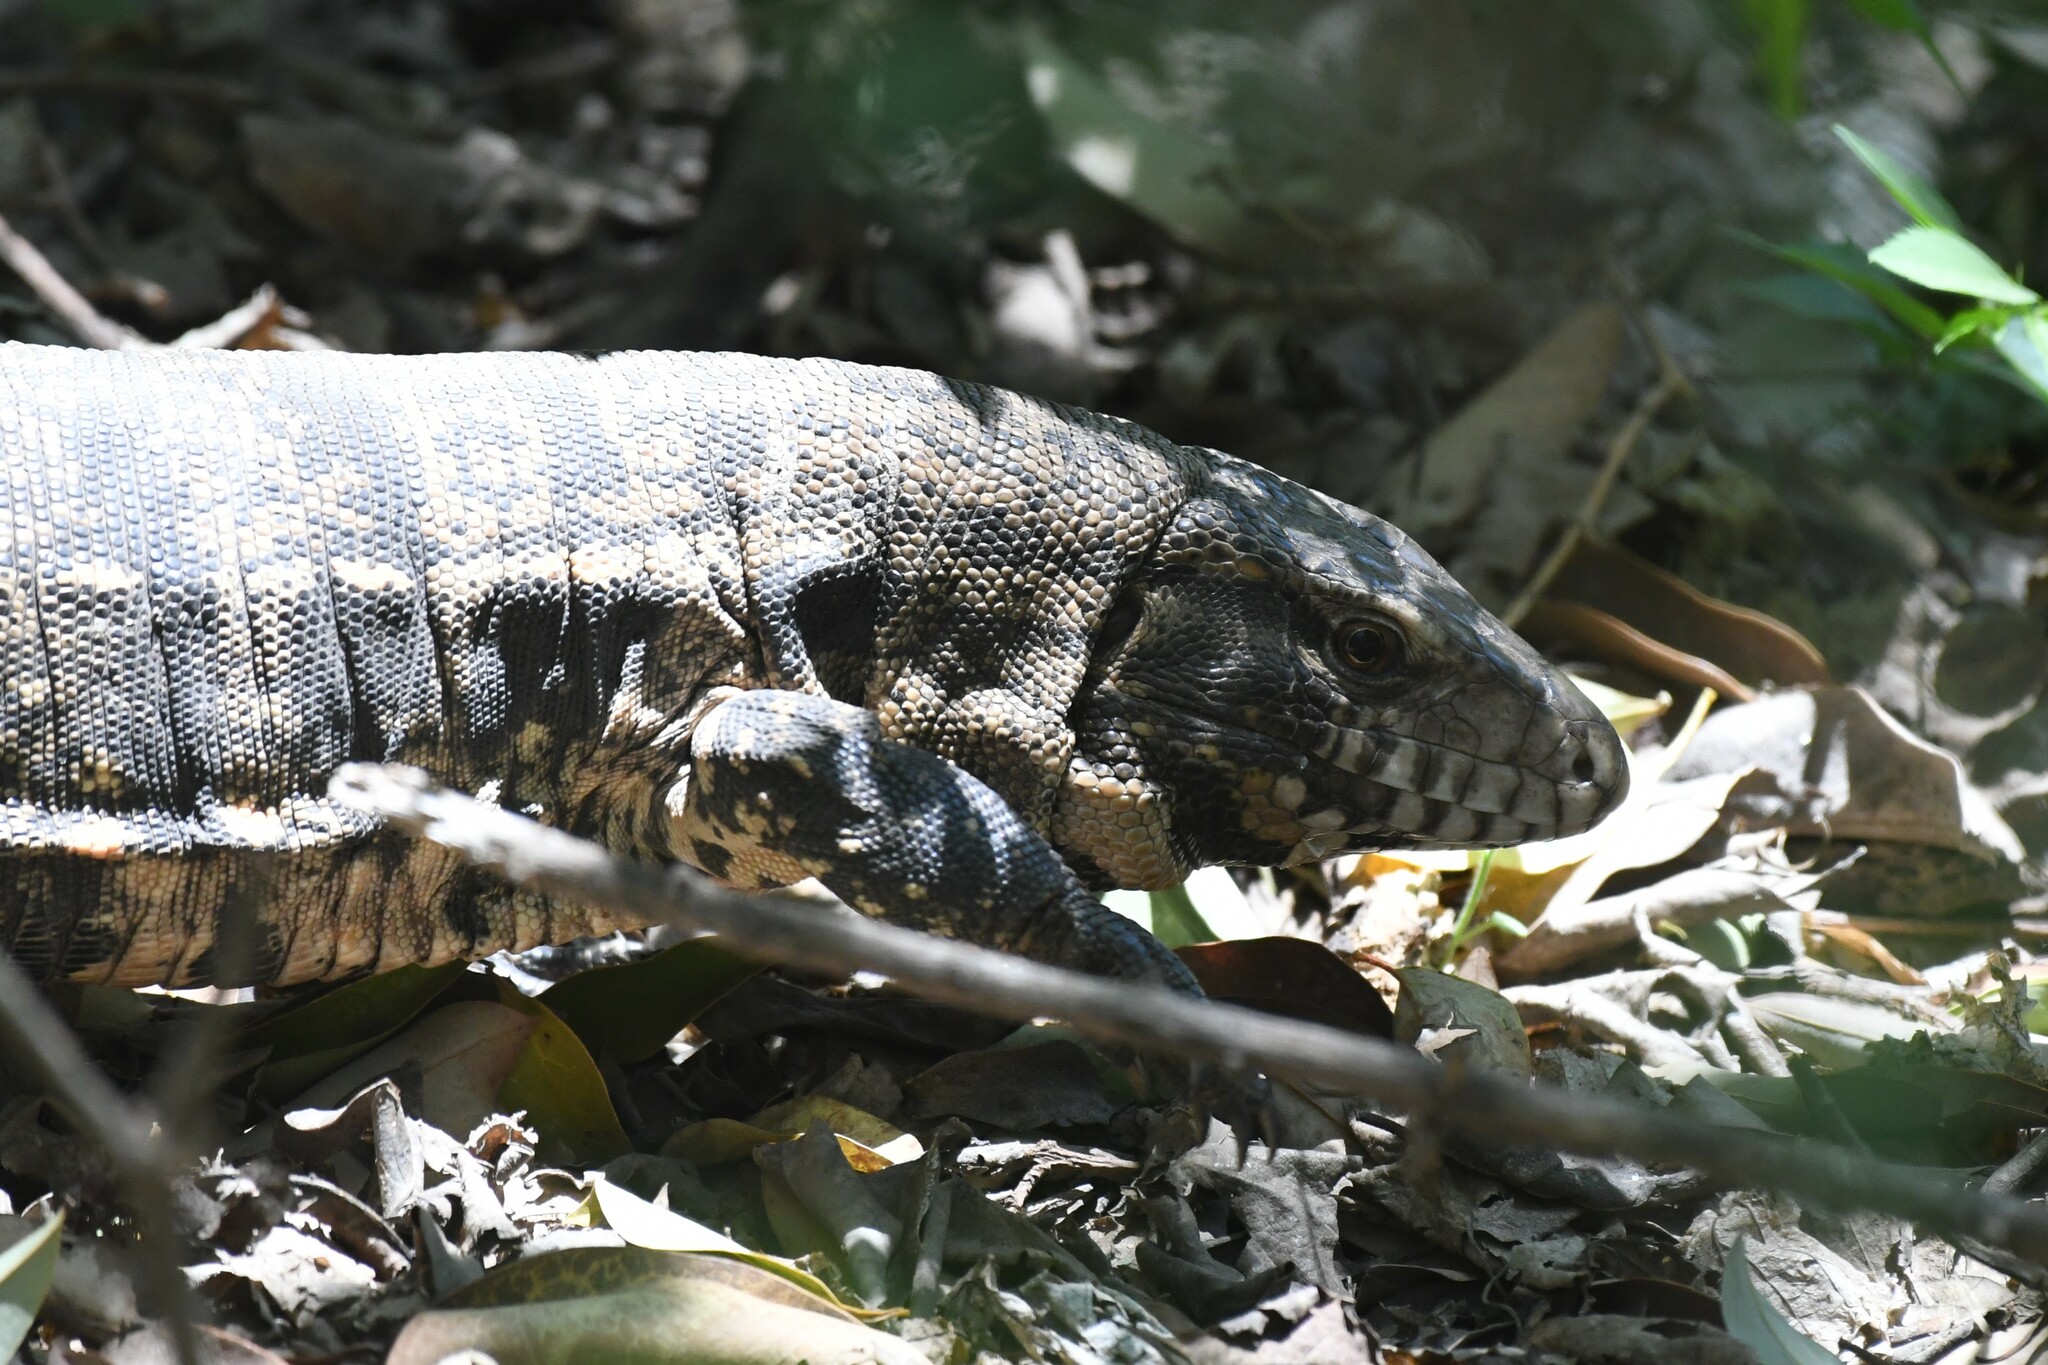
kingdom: Animalia
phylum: Chordata
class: Squamata
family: Teiidae
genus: Salvator
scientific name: Salvator merianae
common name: Argentine black and white tegu
